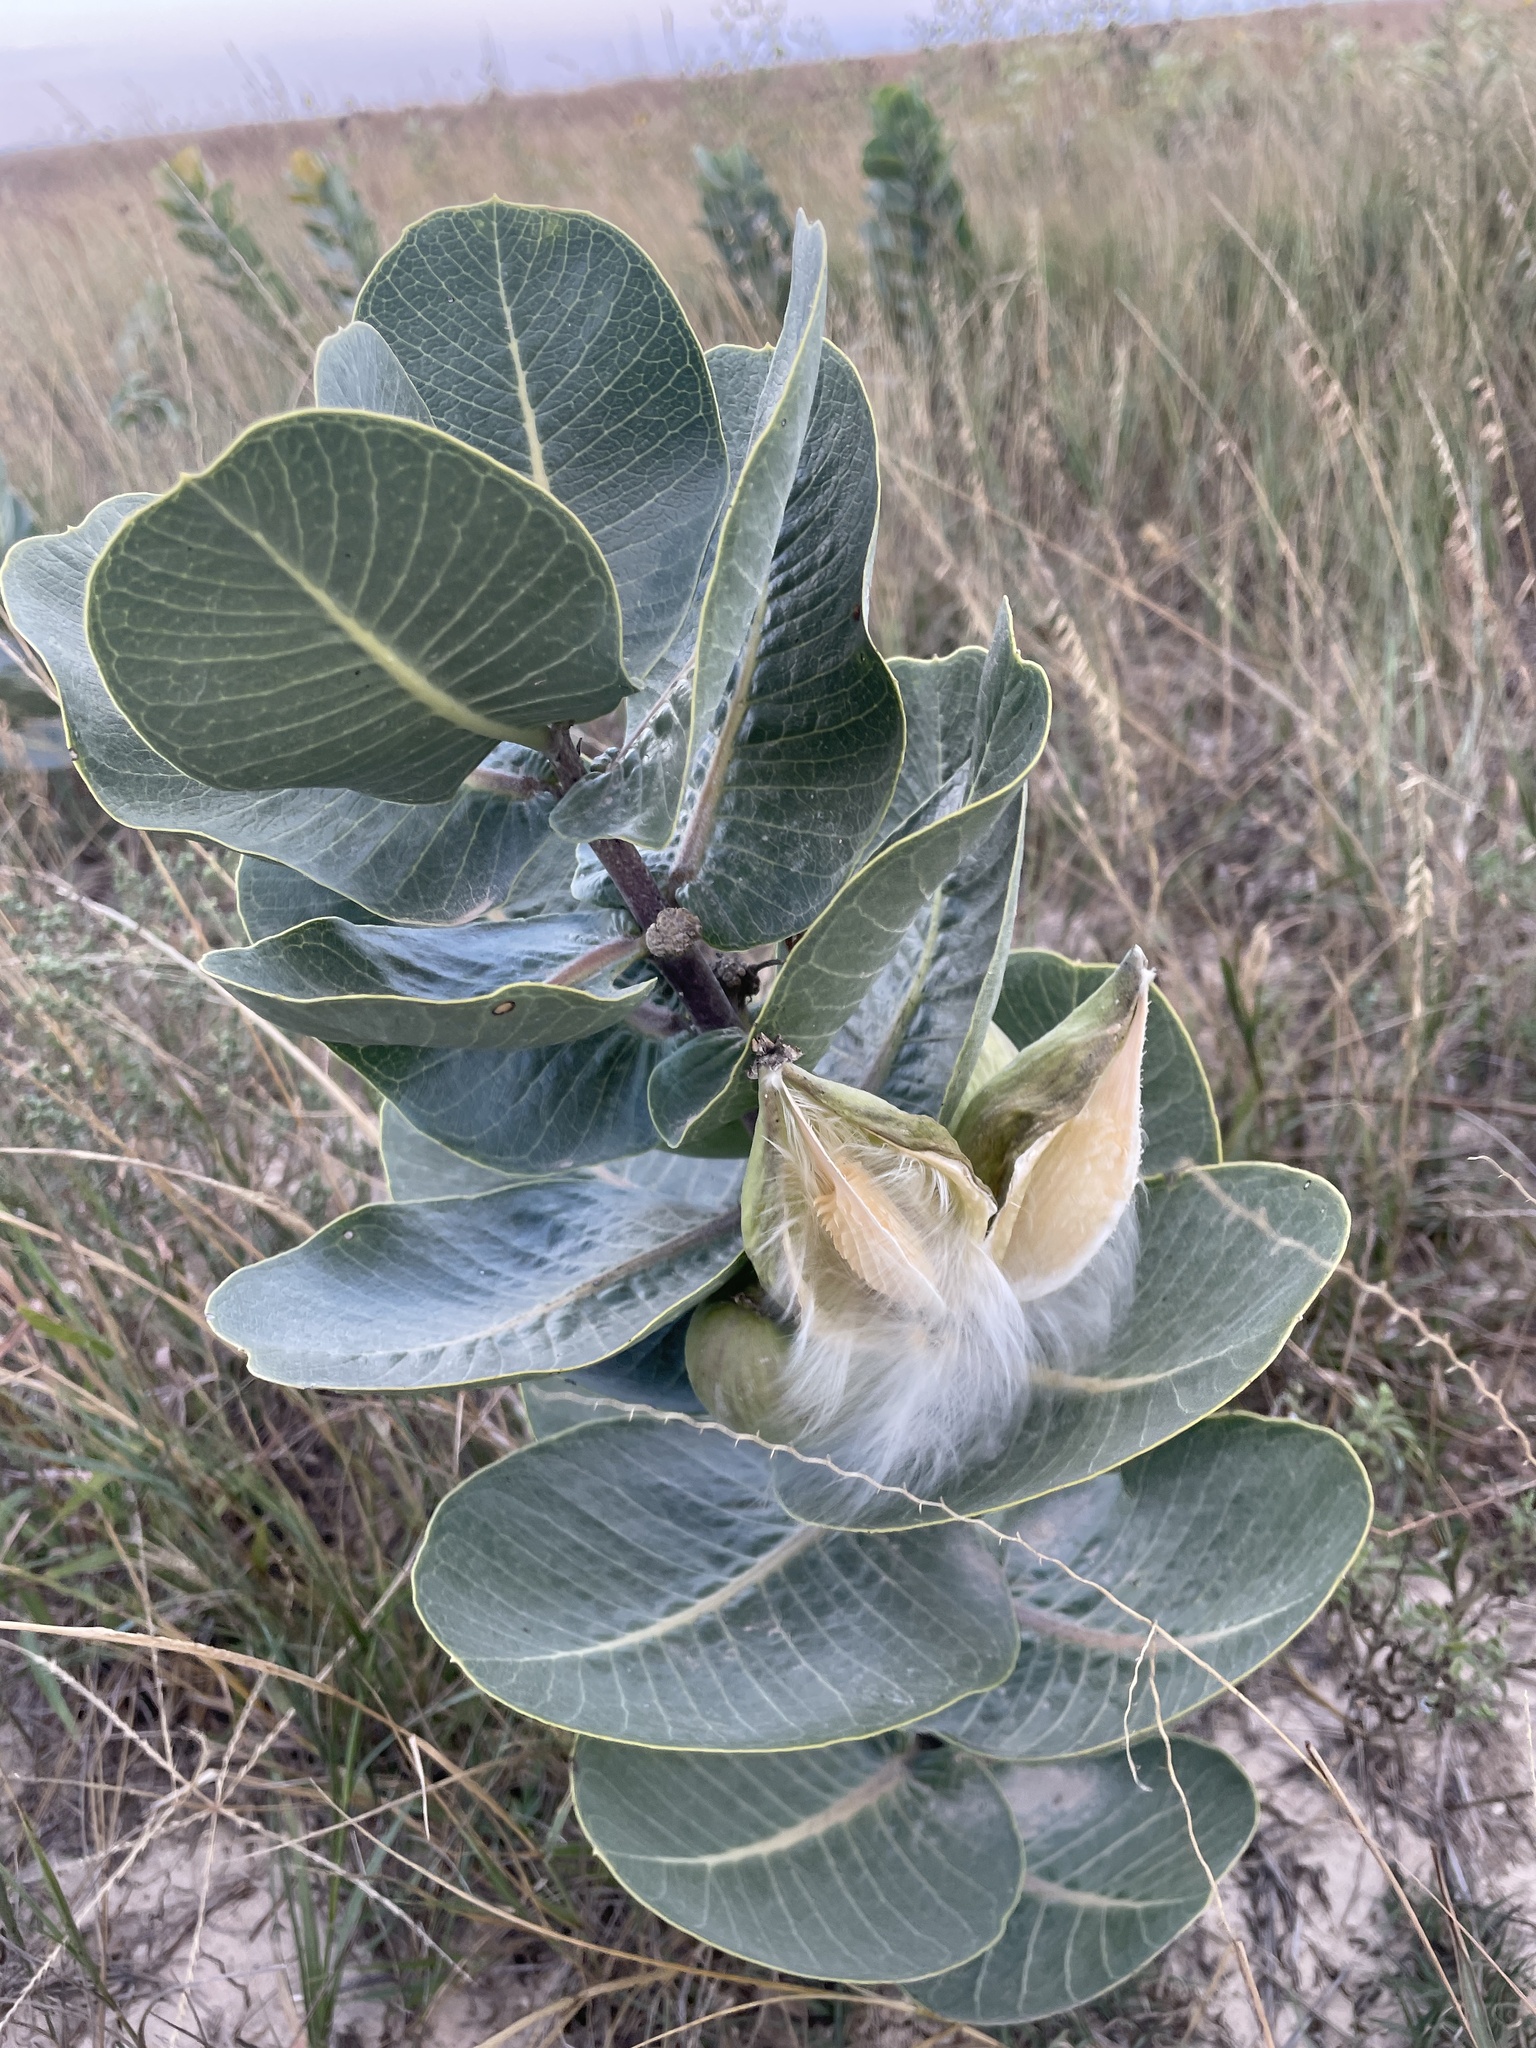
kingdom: Plantae
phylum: Tracheophyta
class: Magnoliopsida
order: Gentianales
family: Apocynaceae
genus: Asclepias
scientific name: Asclepias latifolia
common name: Broadleaf milkweed
